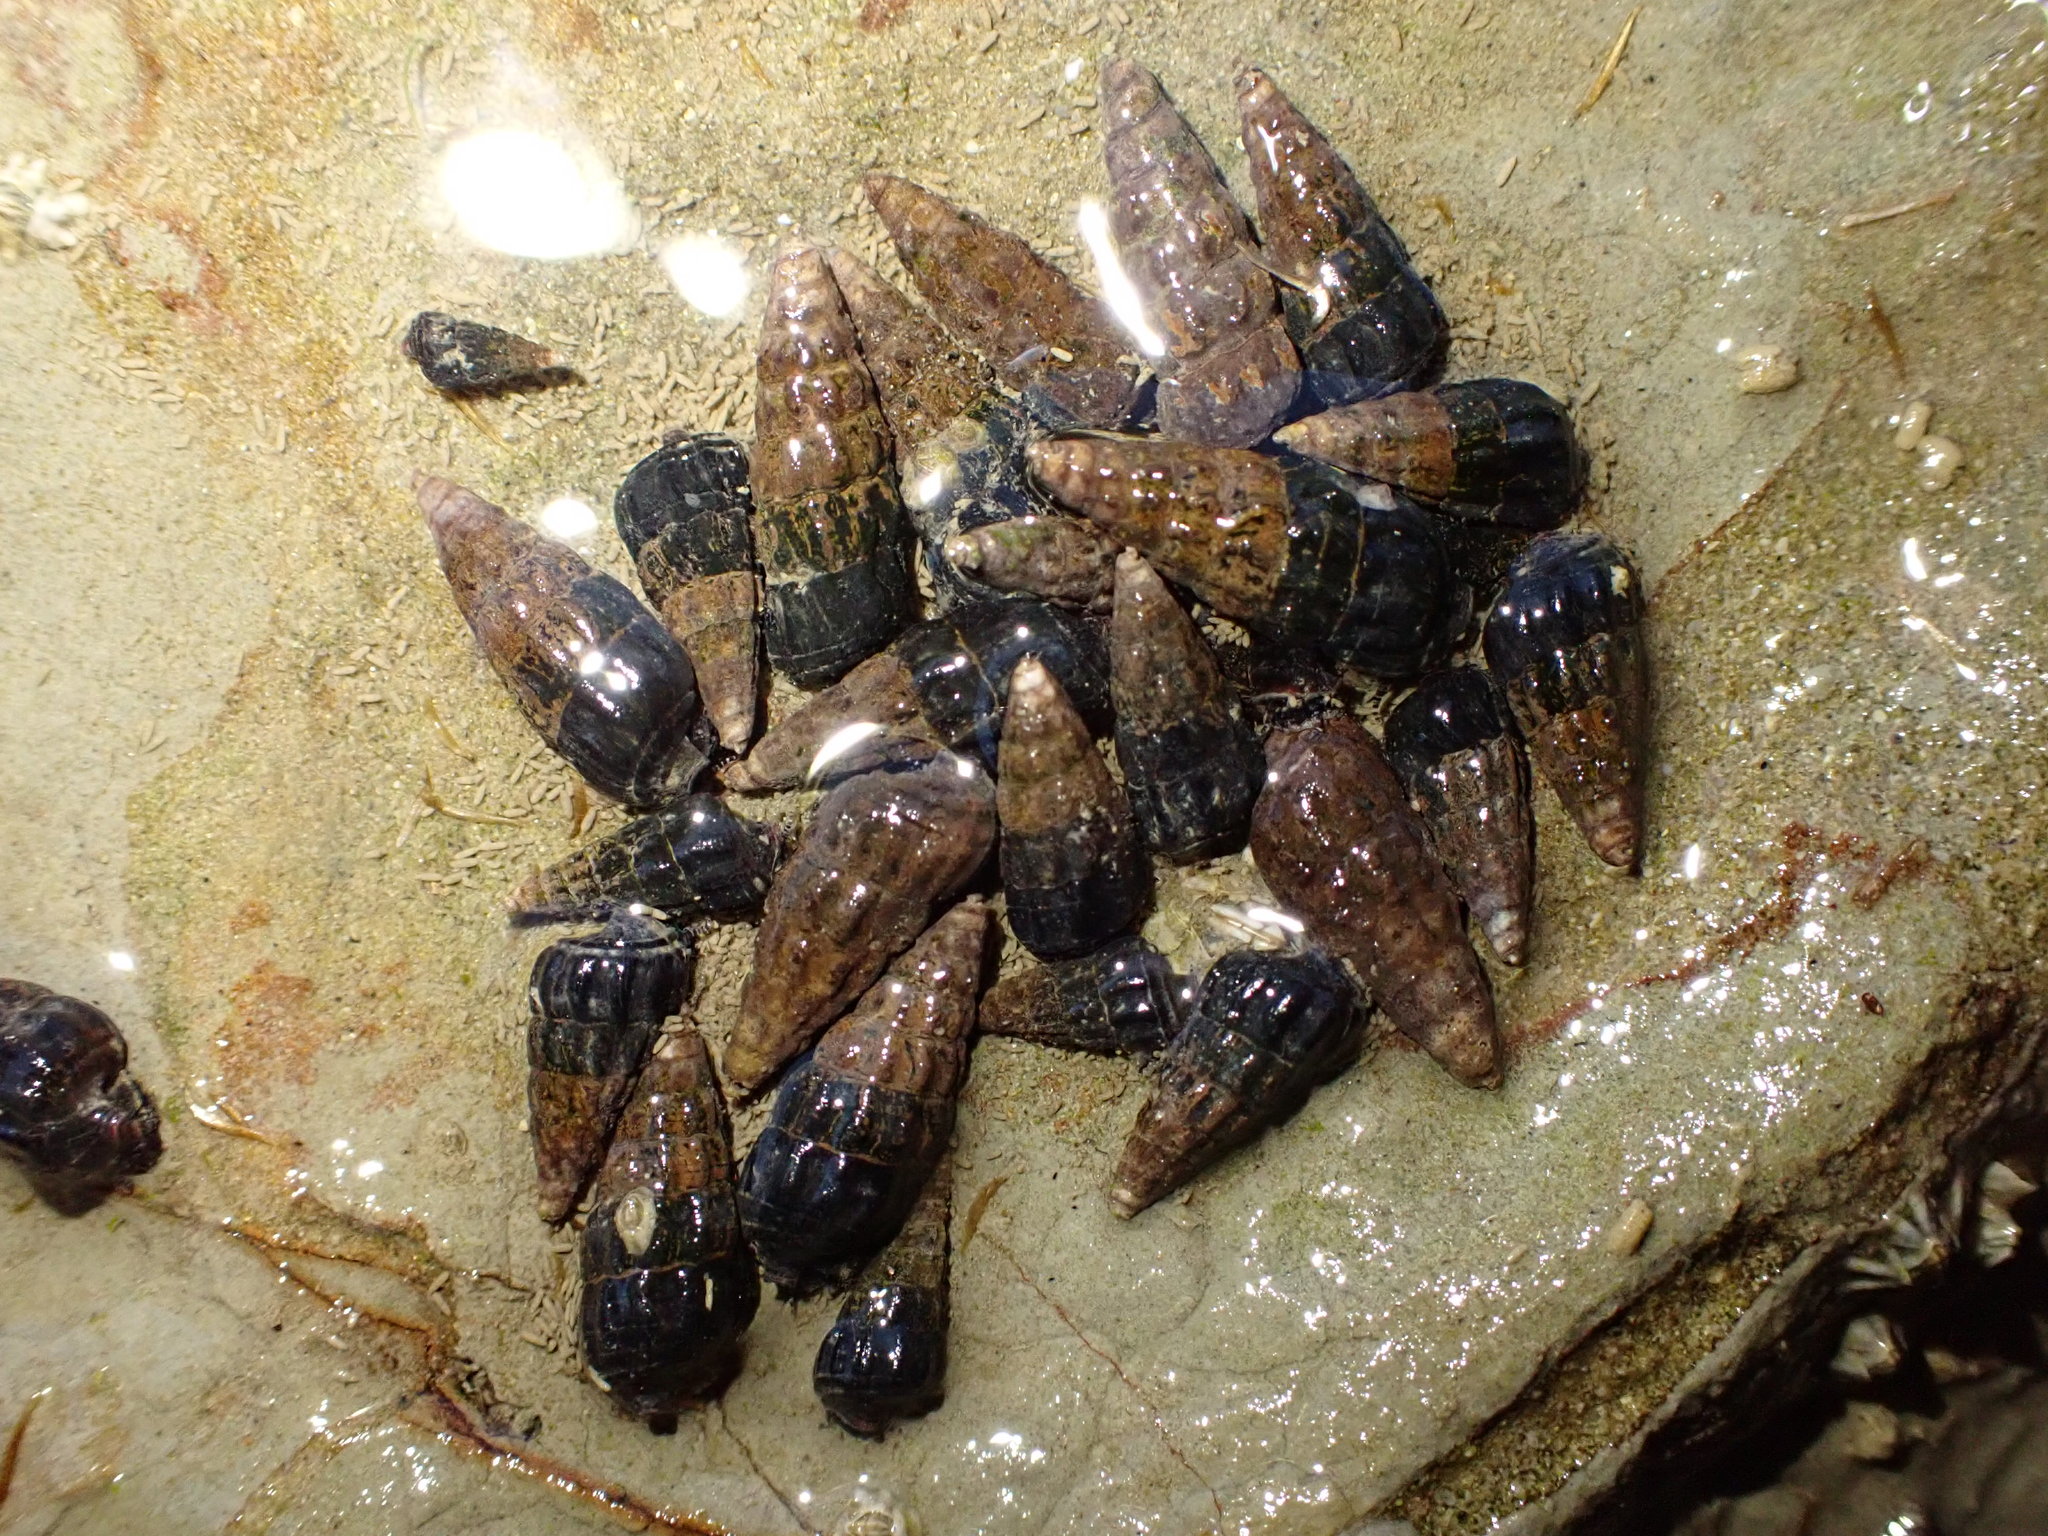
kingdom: Animalia
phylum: Mollusca
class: Gastropoda
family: Batillariidae
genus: Zeacumantus
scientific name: Zeacumantus subcarinatus
